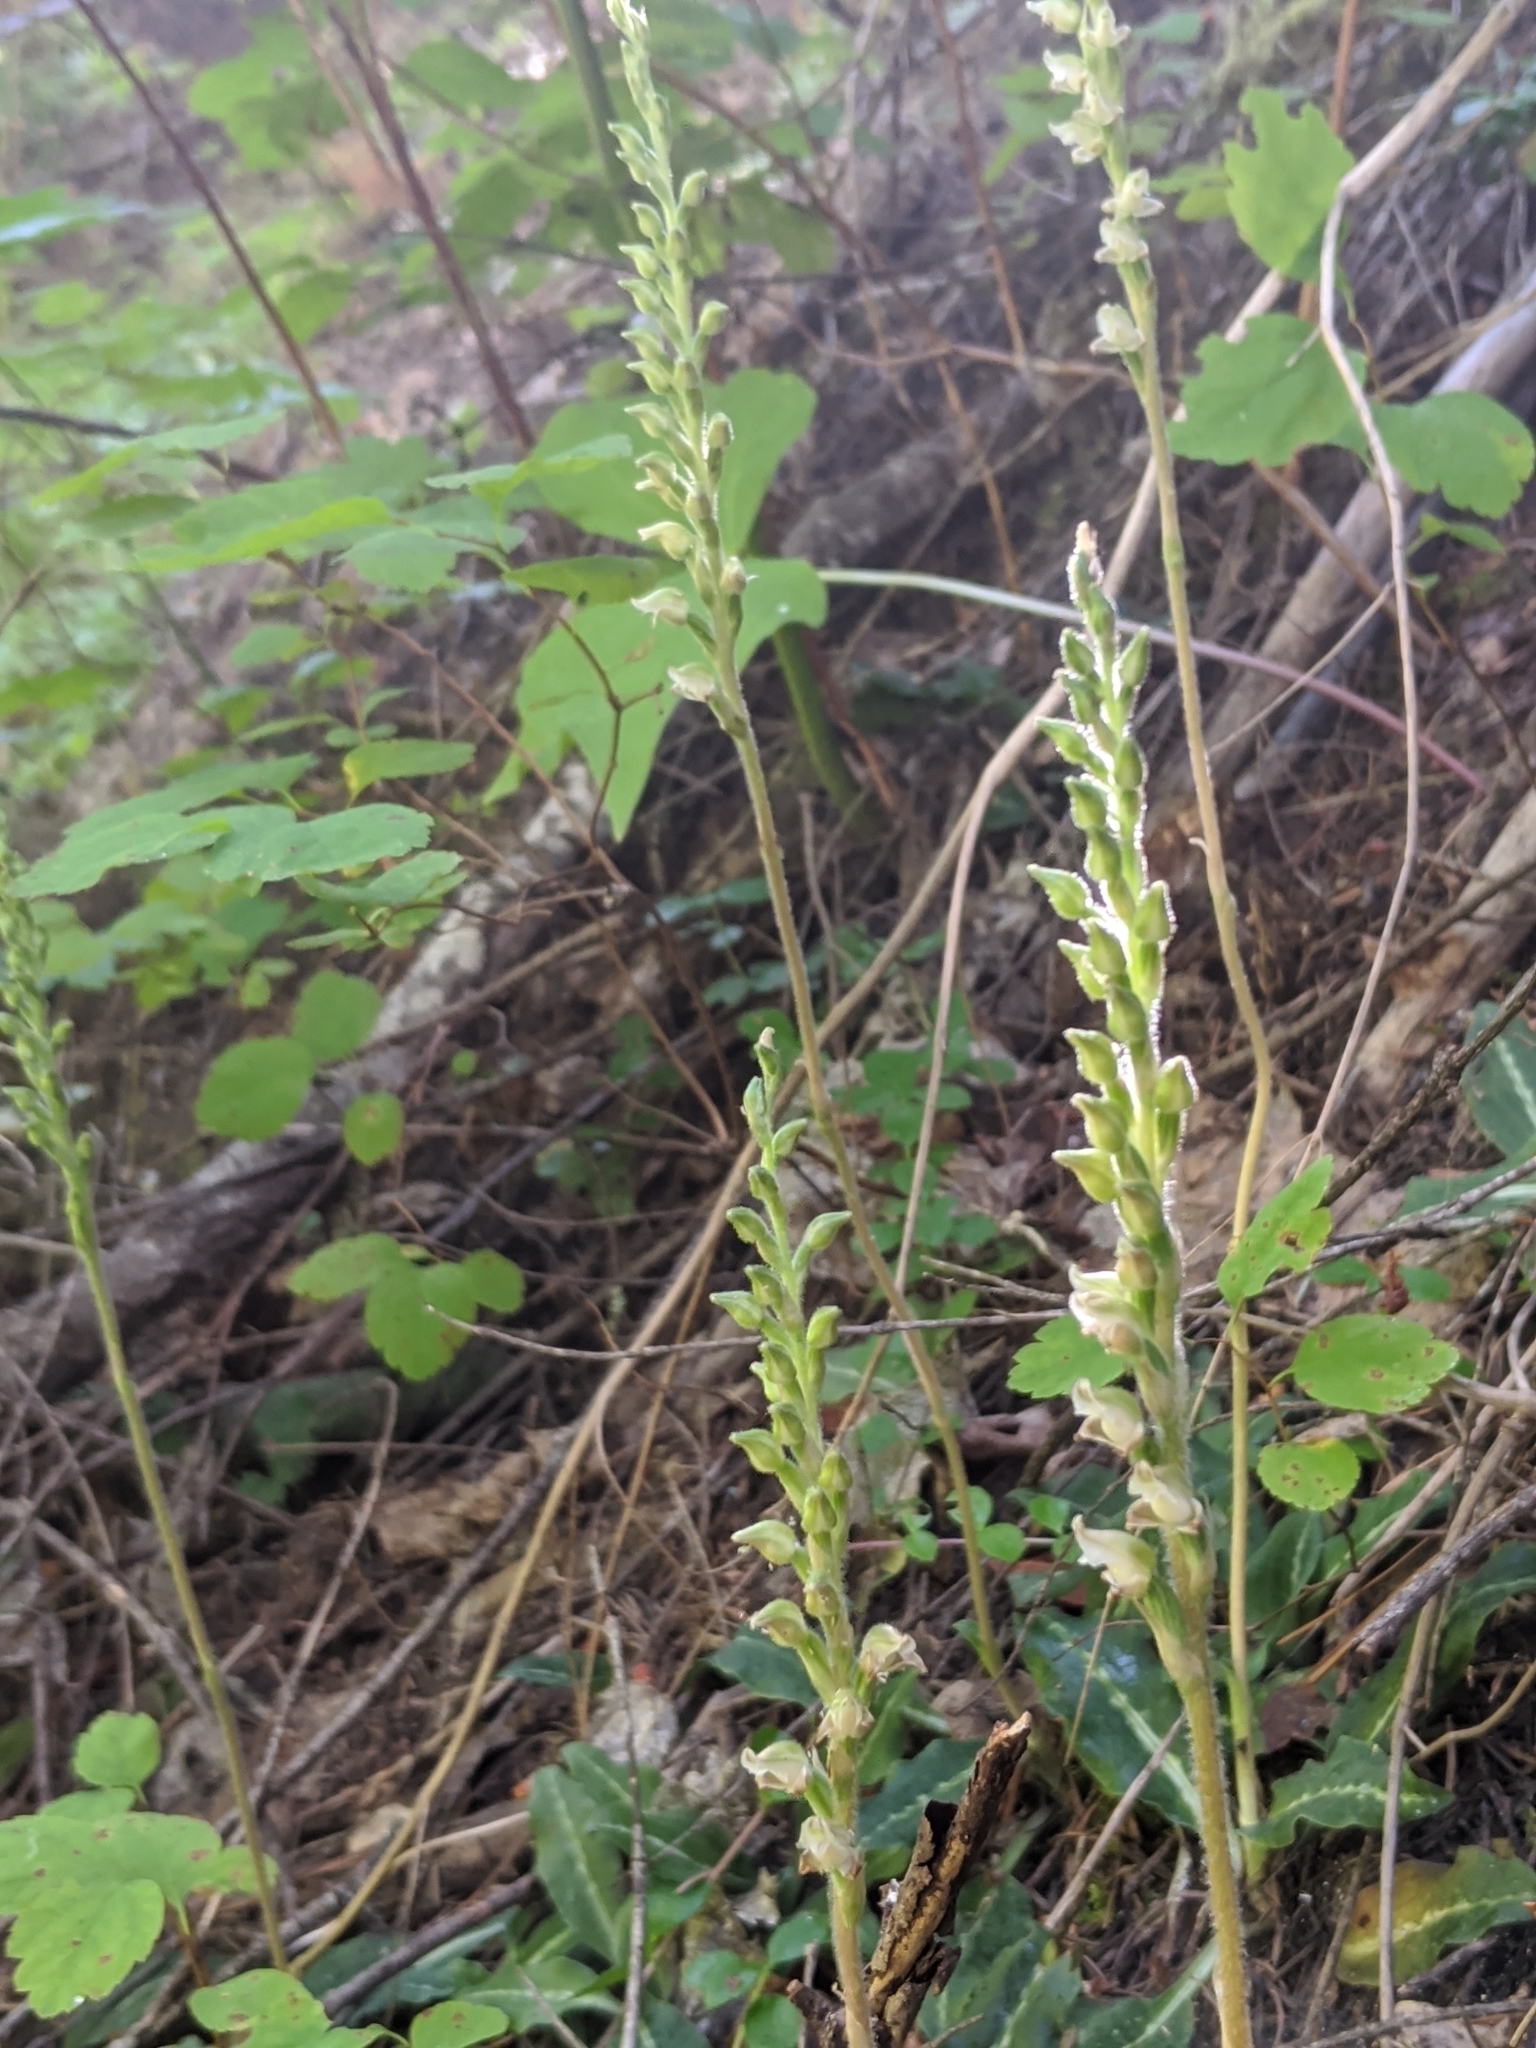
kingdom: Plantae
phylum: Tracheophyta
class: Liliopsida
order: Asparagales
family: Orchidaceae
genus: Goodyera
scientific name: Goodyera oblongifolia
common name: Giant rattlesnake-plantain
